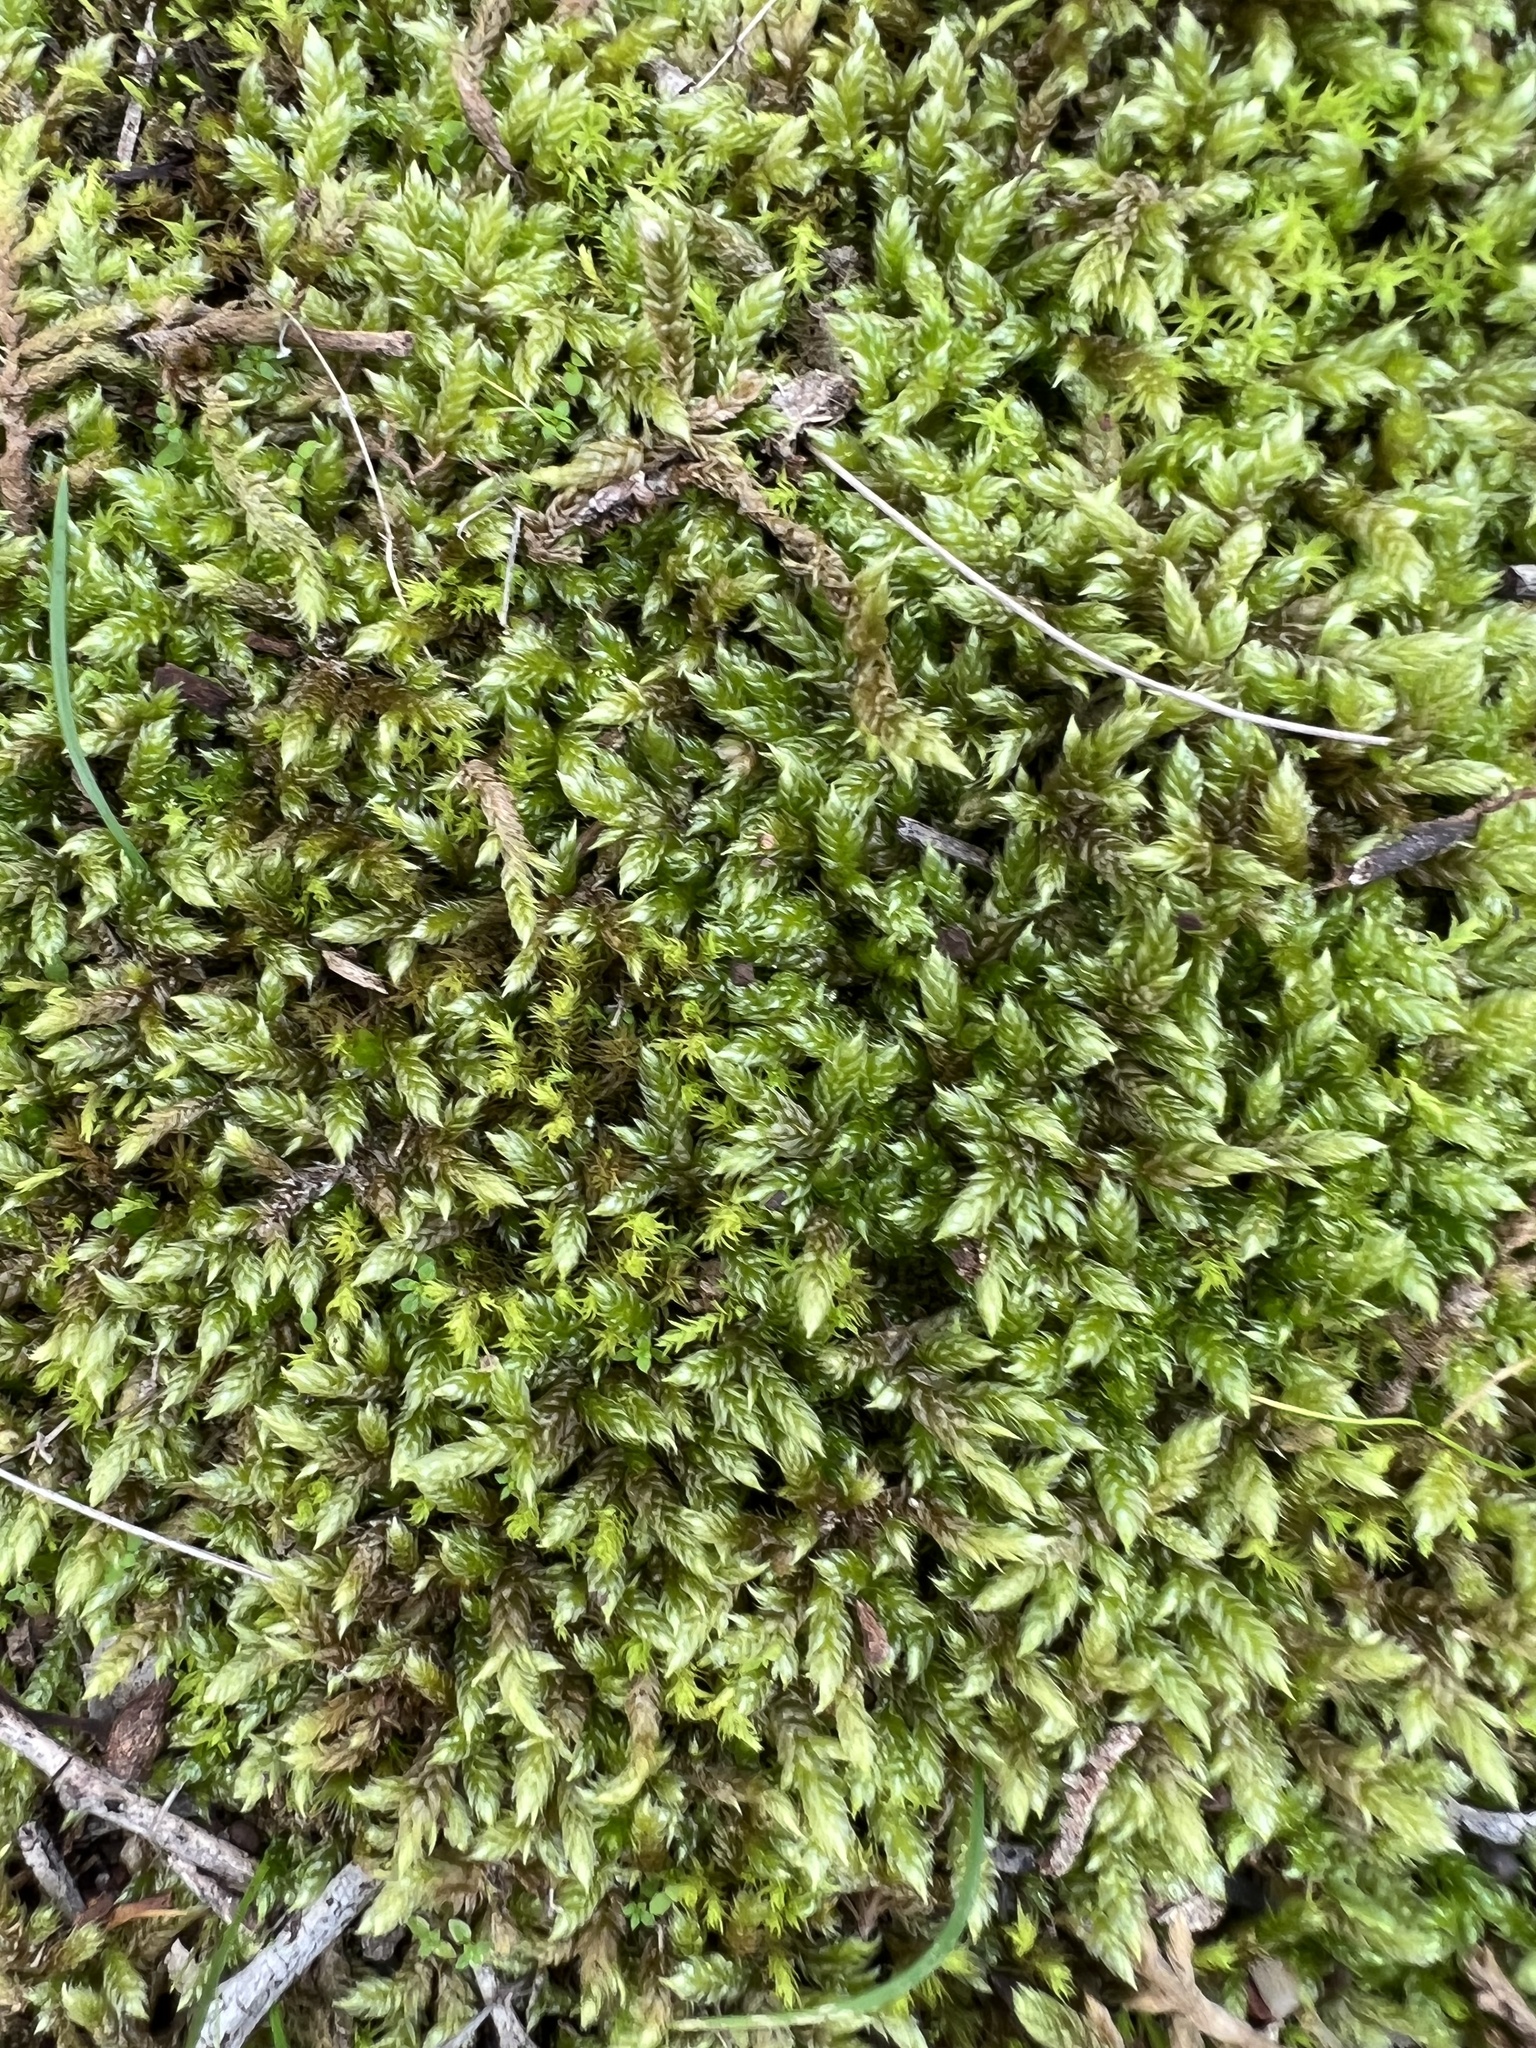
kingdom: Plantae
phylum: Bryophyta
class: Bryopsida
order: Hypnales
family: Hypnaceae
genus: Hypnum
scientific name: Hypnum cupressiforme
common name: Cypress-leaved plait-moss
